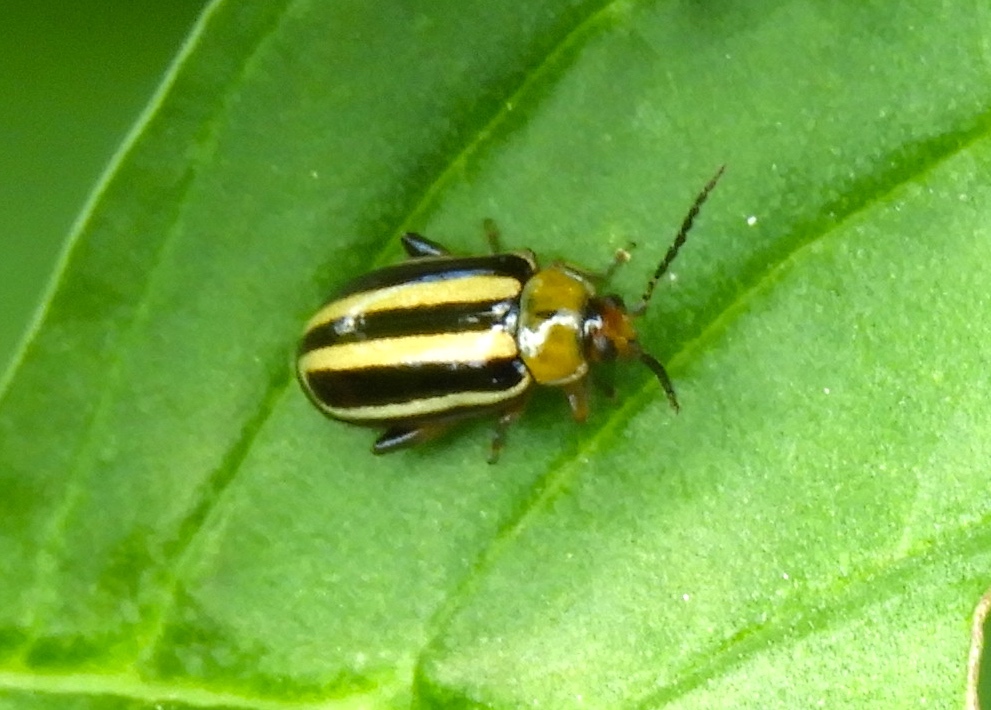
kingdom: Animalia
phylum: Arthropoda
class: Insecta
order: Coleoptera
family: Chrysomelidae
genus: Disonycha
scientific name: Disonycha glabrata
